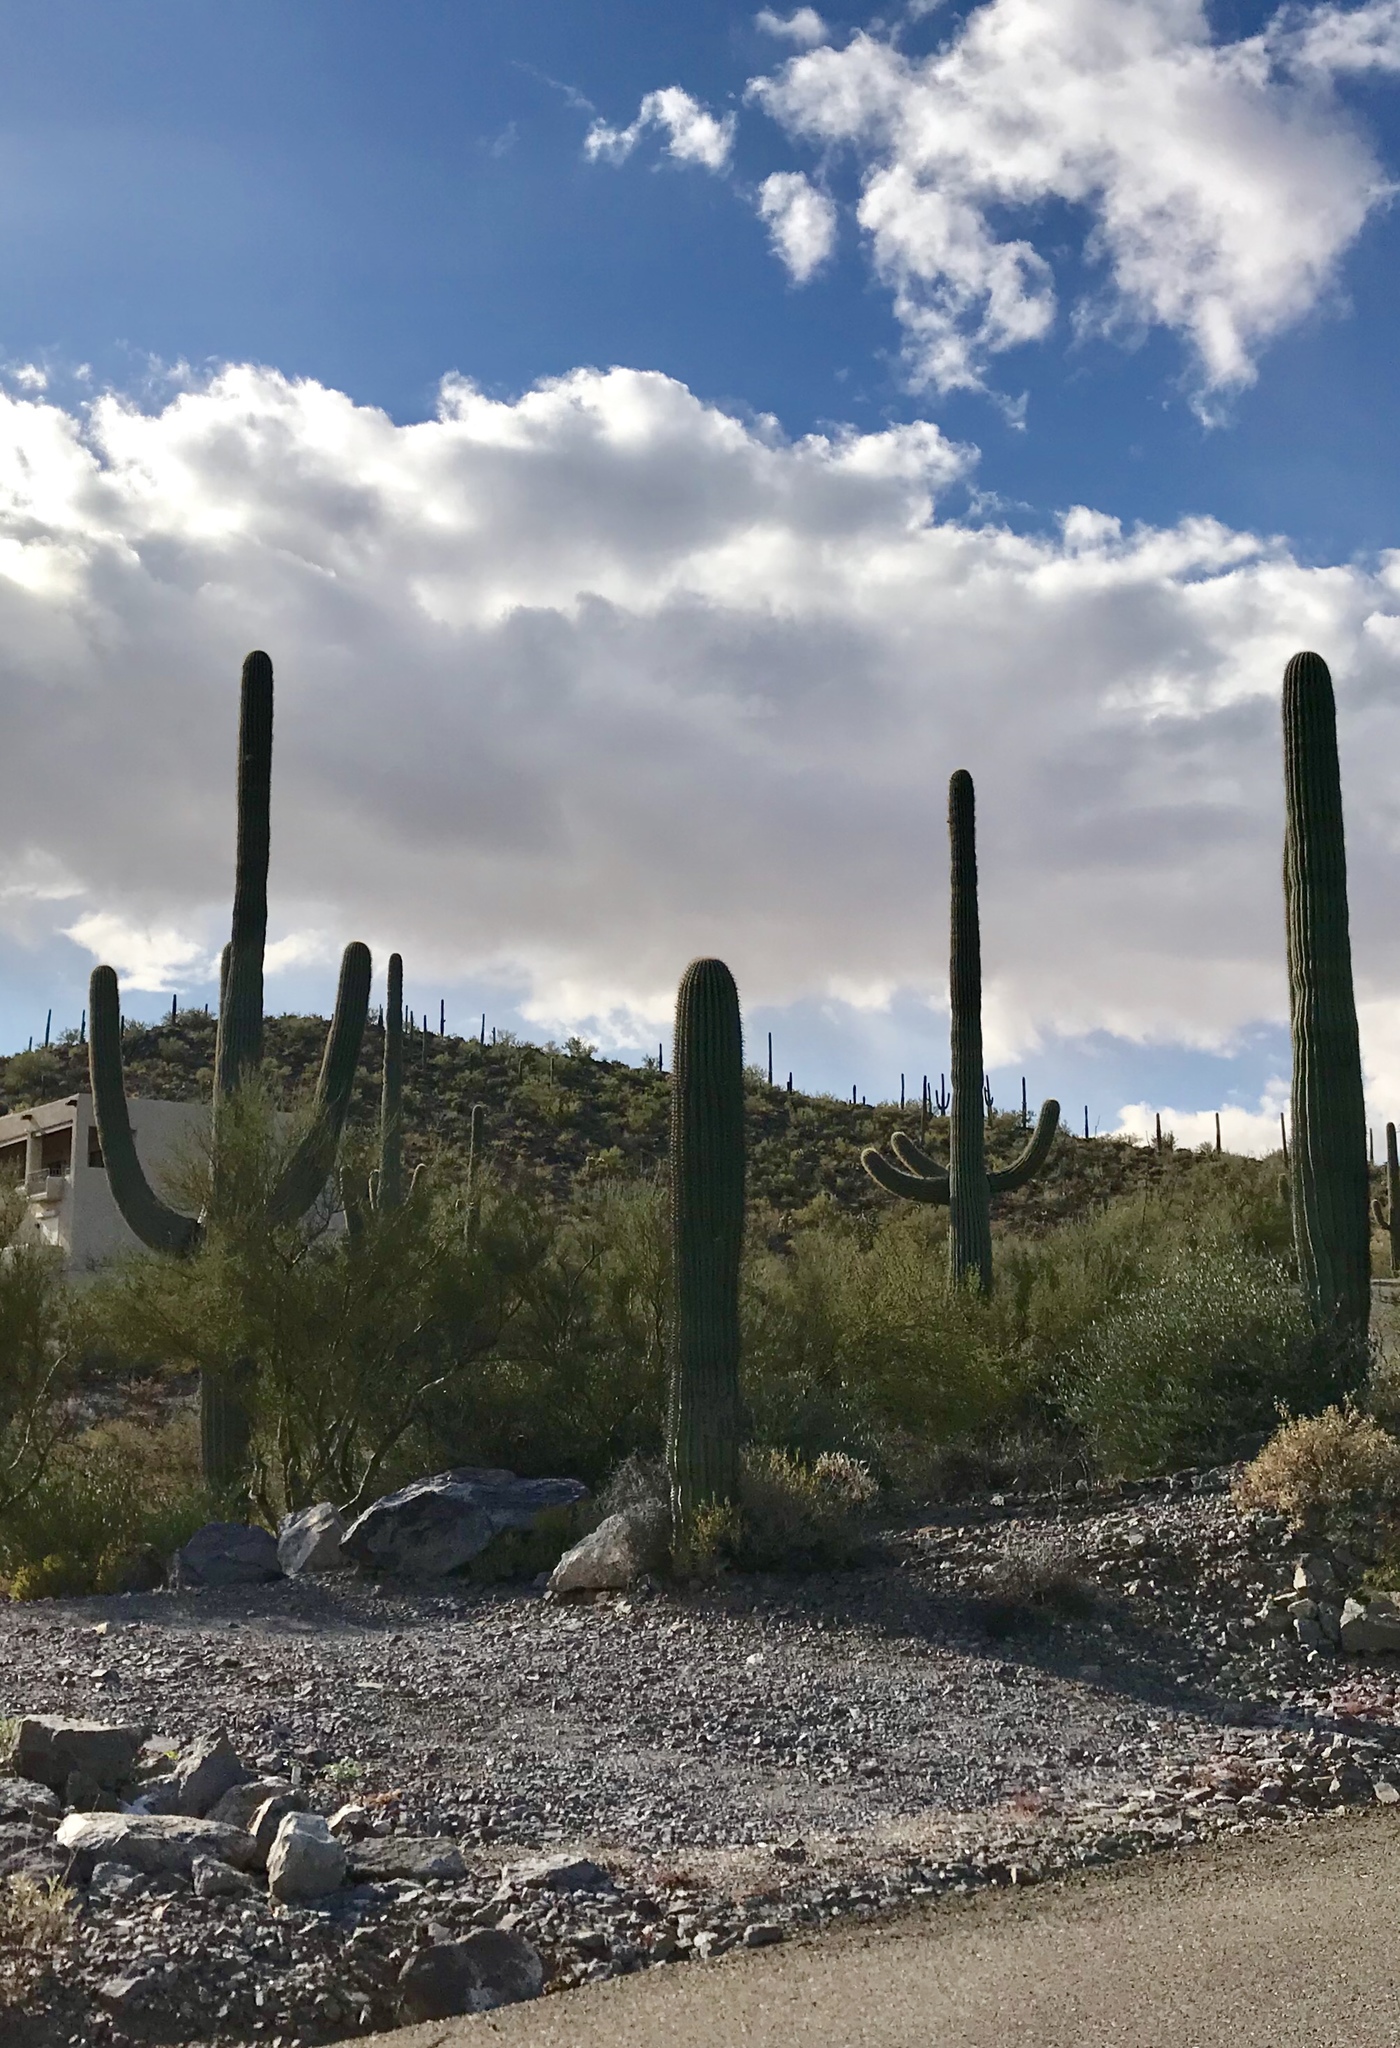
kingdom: Plantae
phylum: Tracheophyta
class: Magnoliopsida
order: Caryophyllales
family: Cactaceae
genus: Carnegiea
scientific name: Carnegiea gigantea
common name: Saguaro
